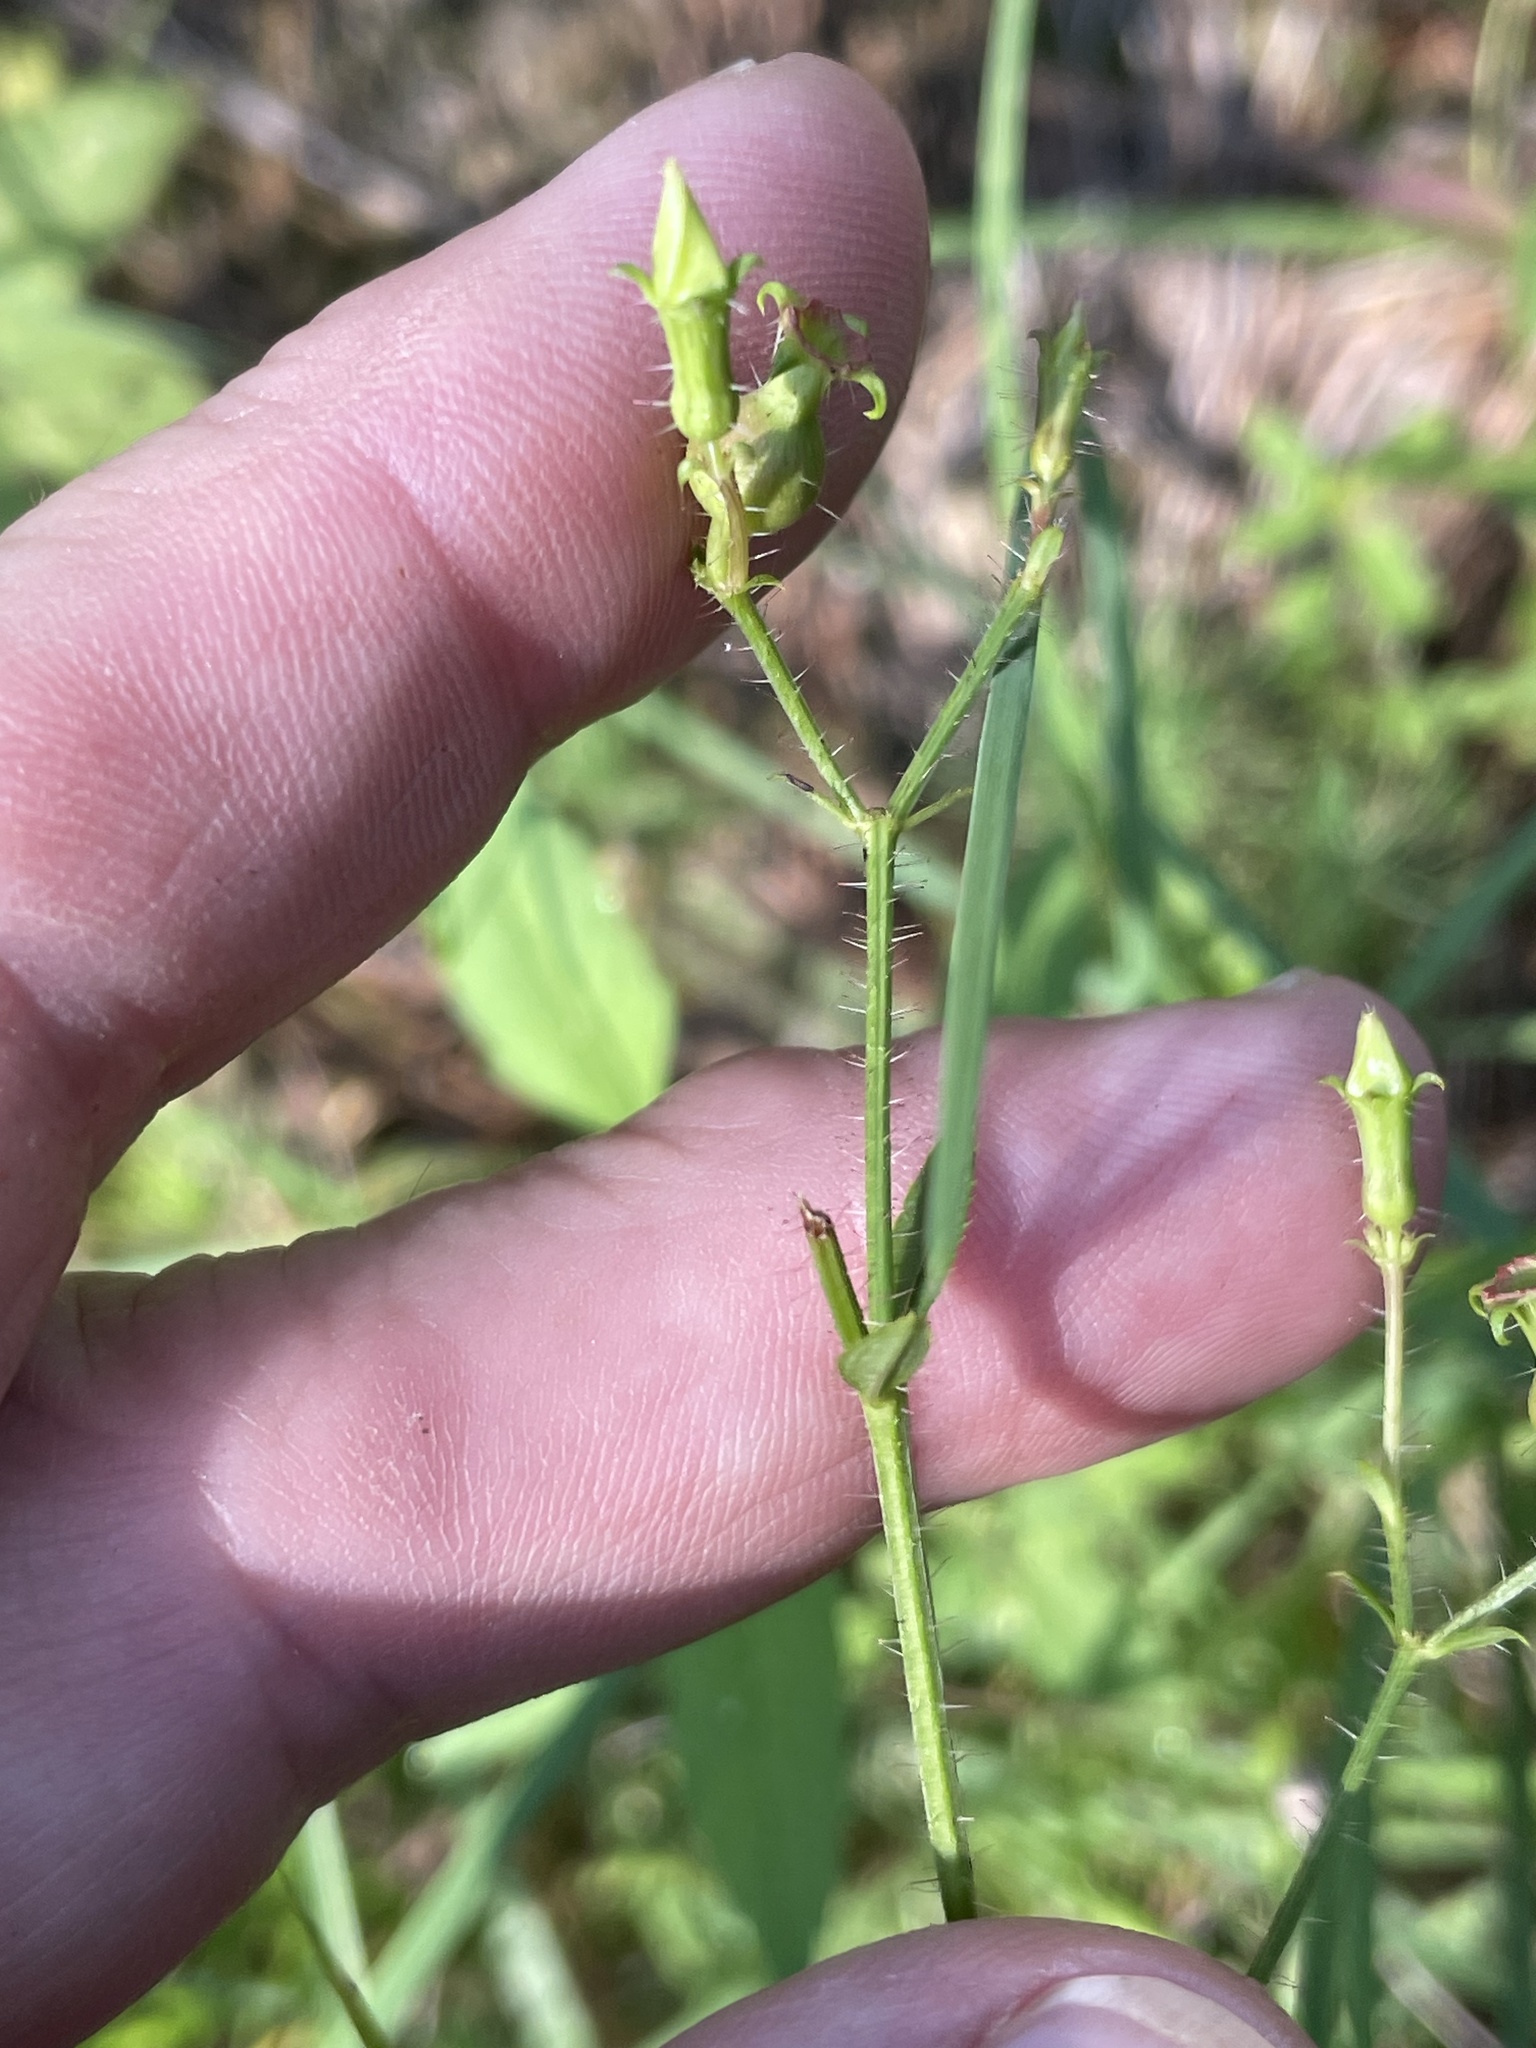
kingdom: Plantae
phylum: Tracheophyta
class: Magnoliopsida
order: Myrtales
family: Melastomataceae
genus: Rhexia
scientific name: Rhexia mariana
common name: Dull meadow-pitcher
